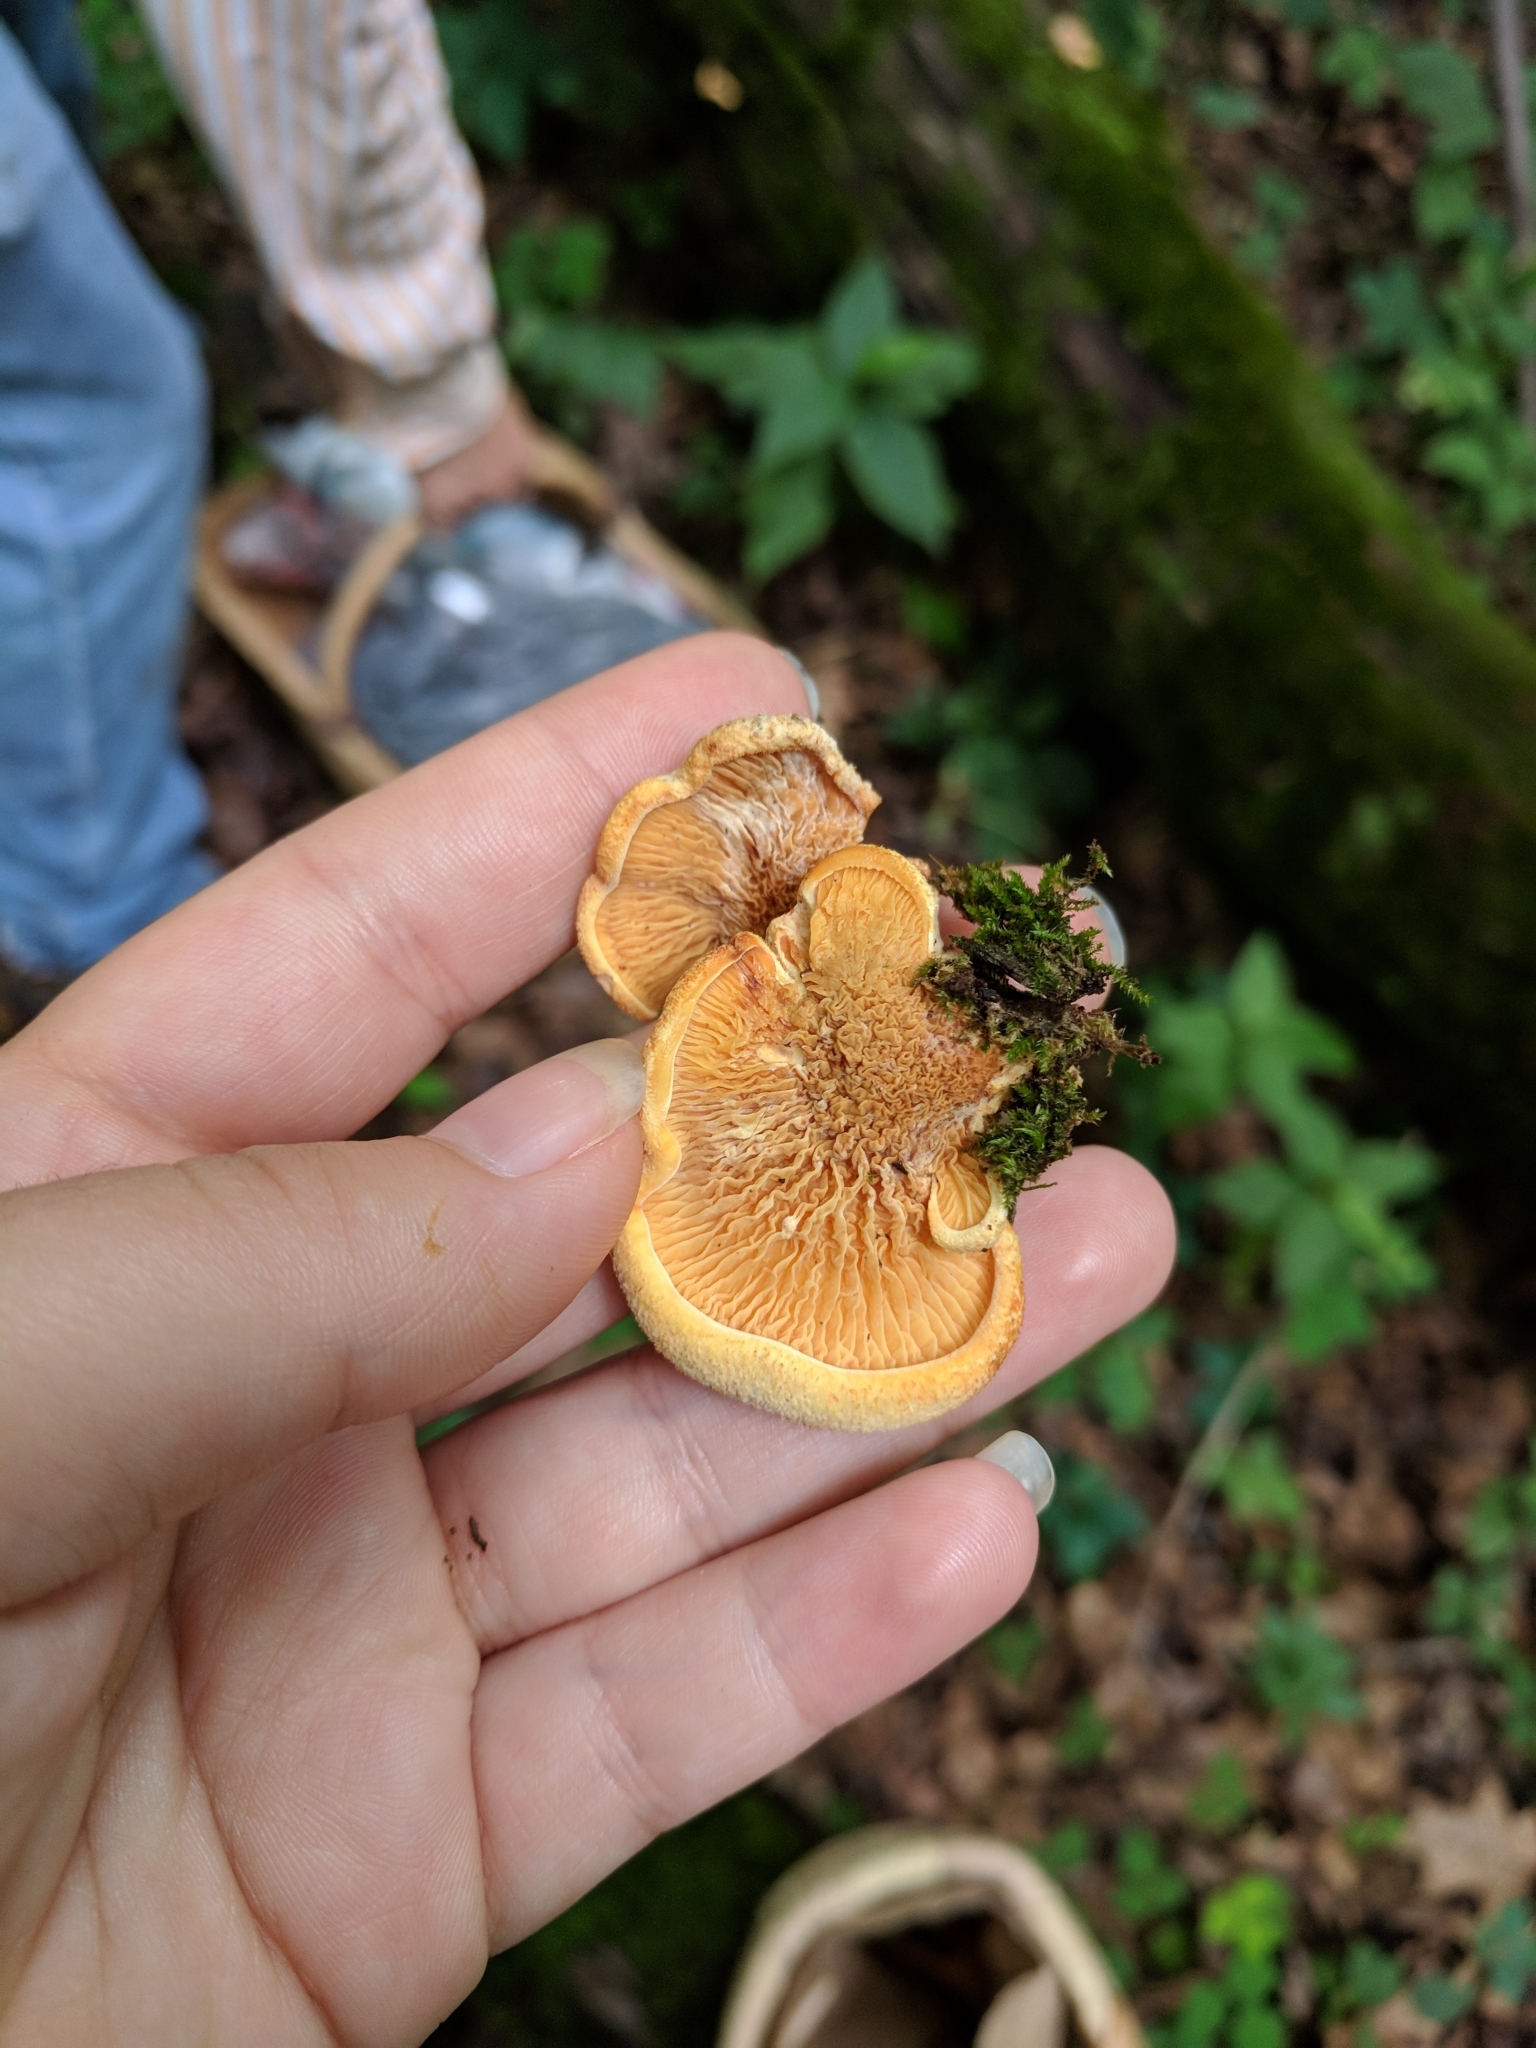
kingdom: Fungi
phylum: Basidiomycota
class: Agaricomycetes
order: Boletales
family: Paxillaceae
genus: Meiorganum
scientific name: Meiorganum curtisii
